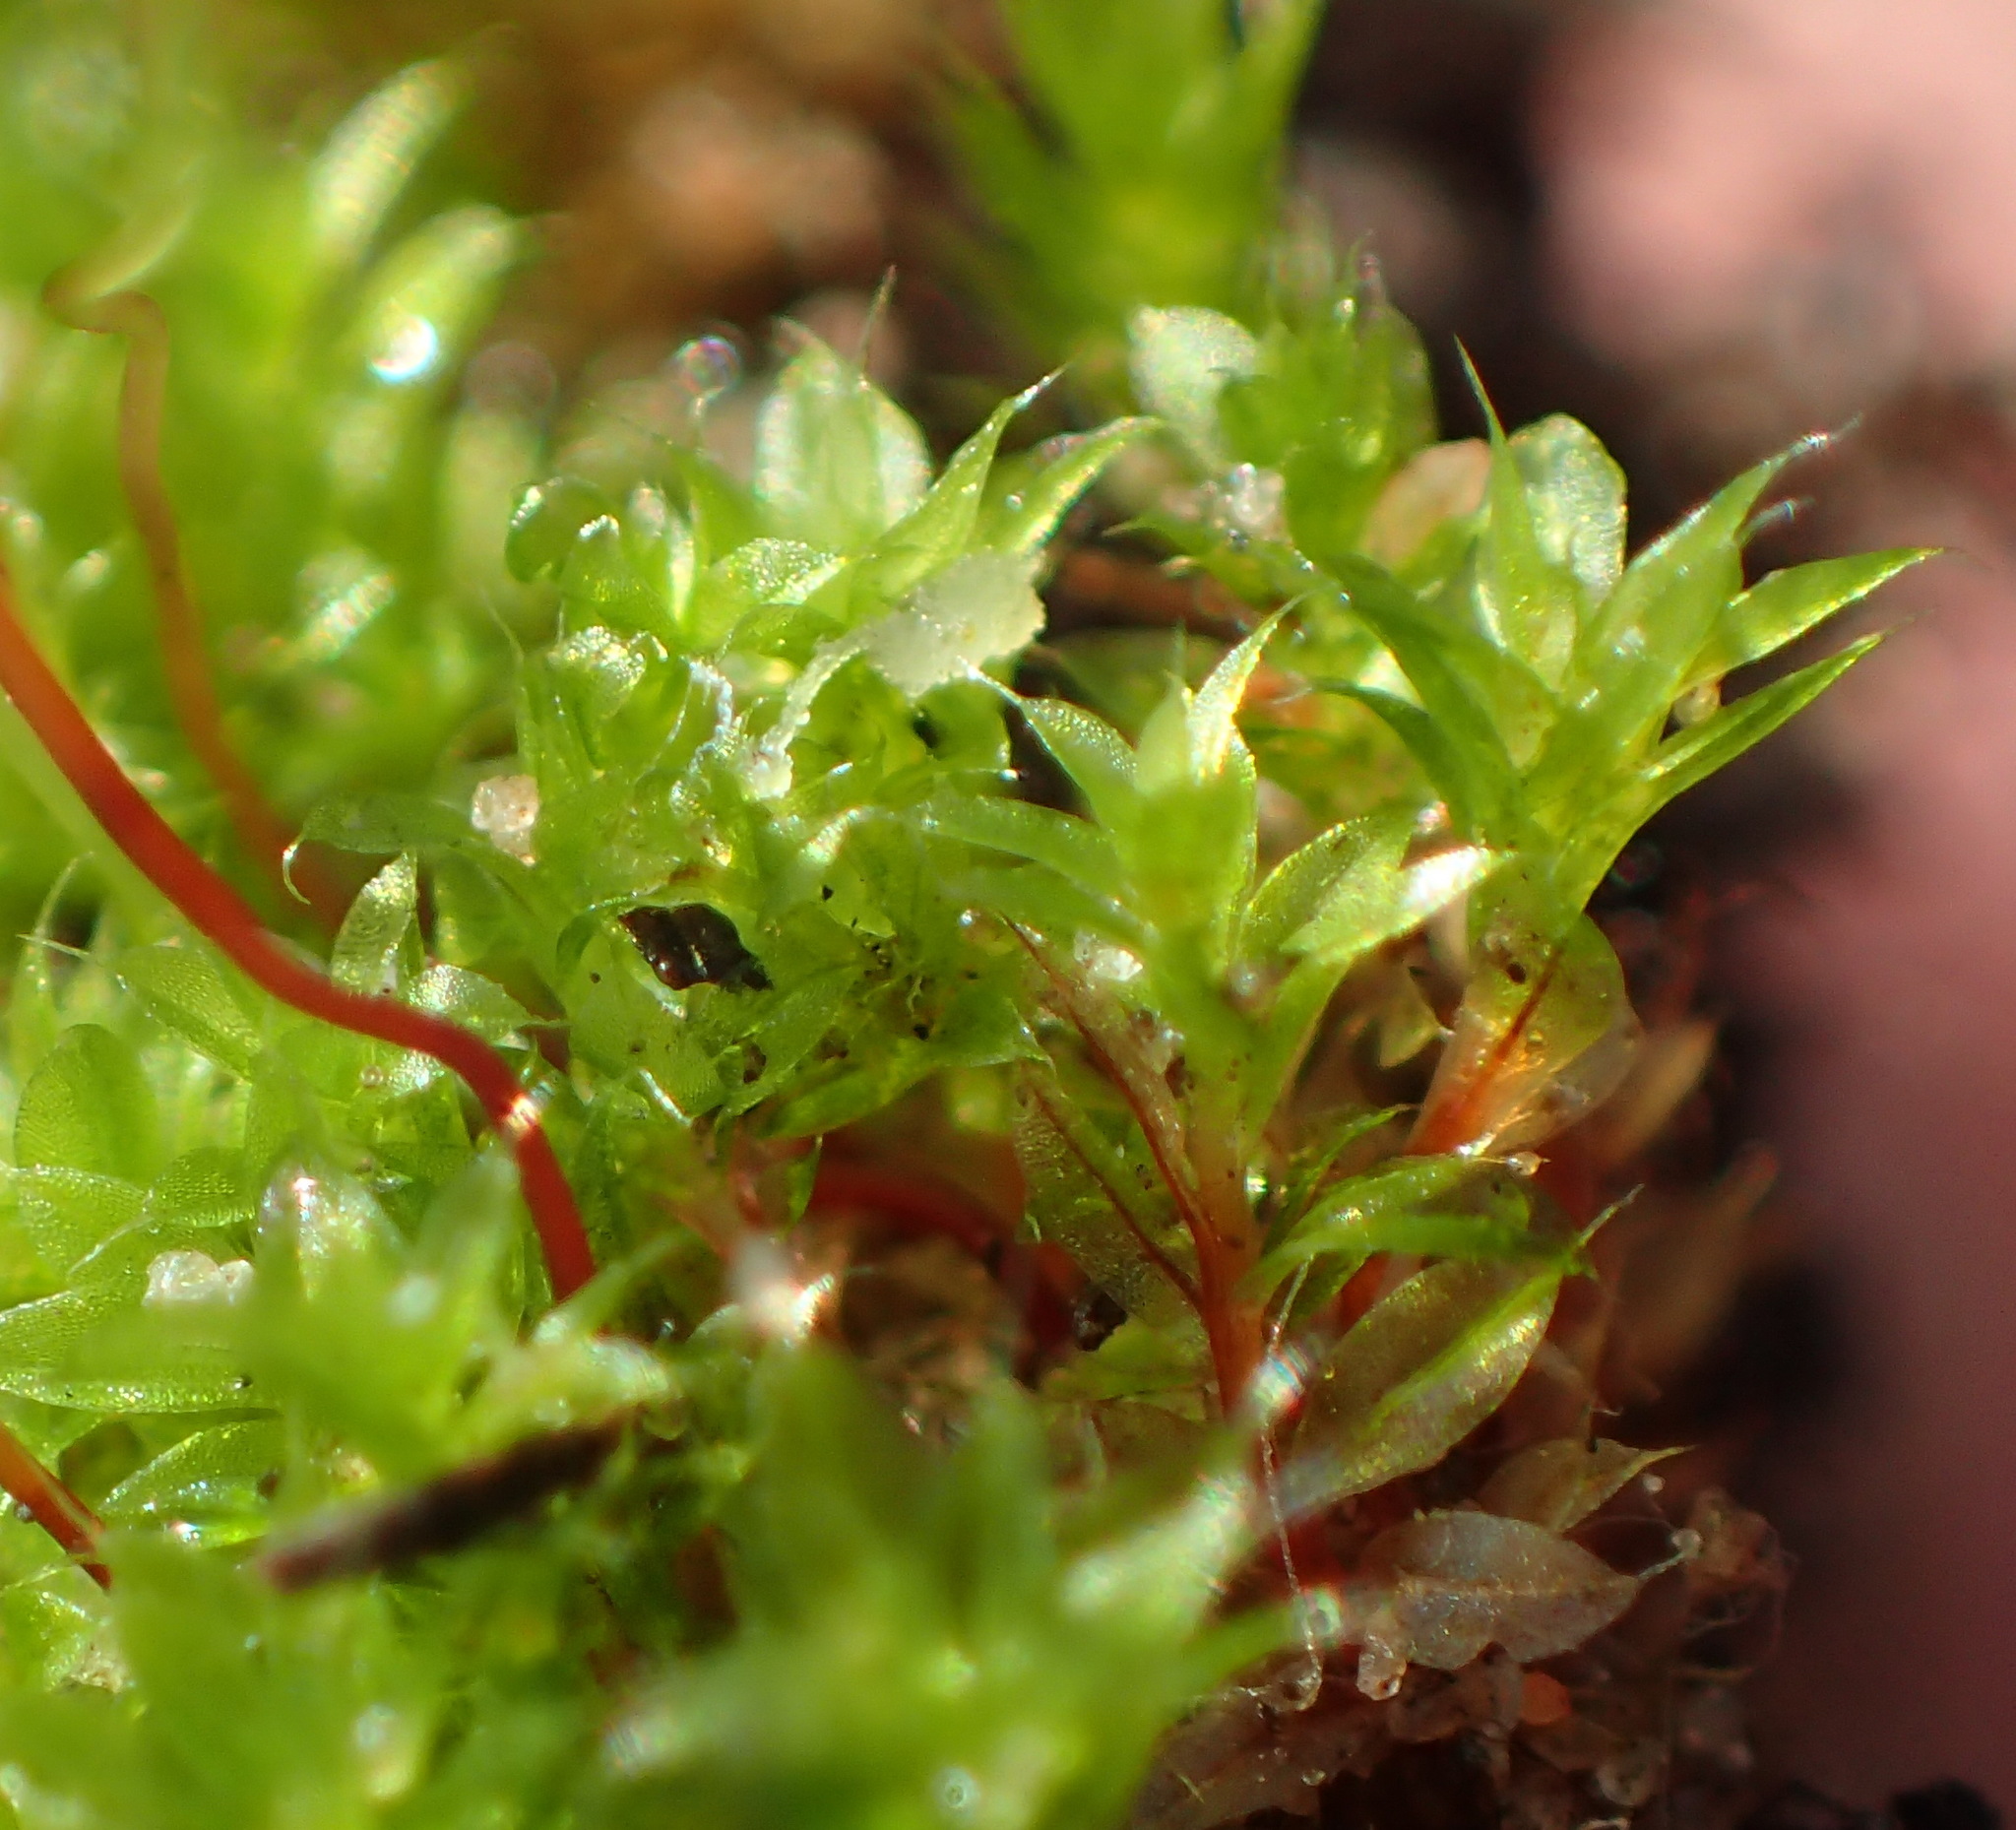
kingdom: Plantae
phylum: Bryophyta
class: Bryopsida
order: Bryales
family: Bryaceae
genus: Rosulabryum
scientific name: Rosulabryum torquescens
